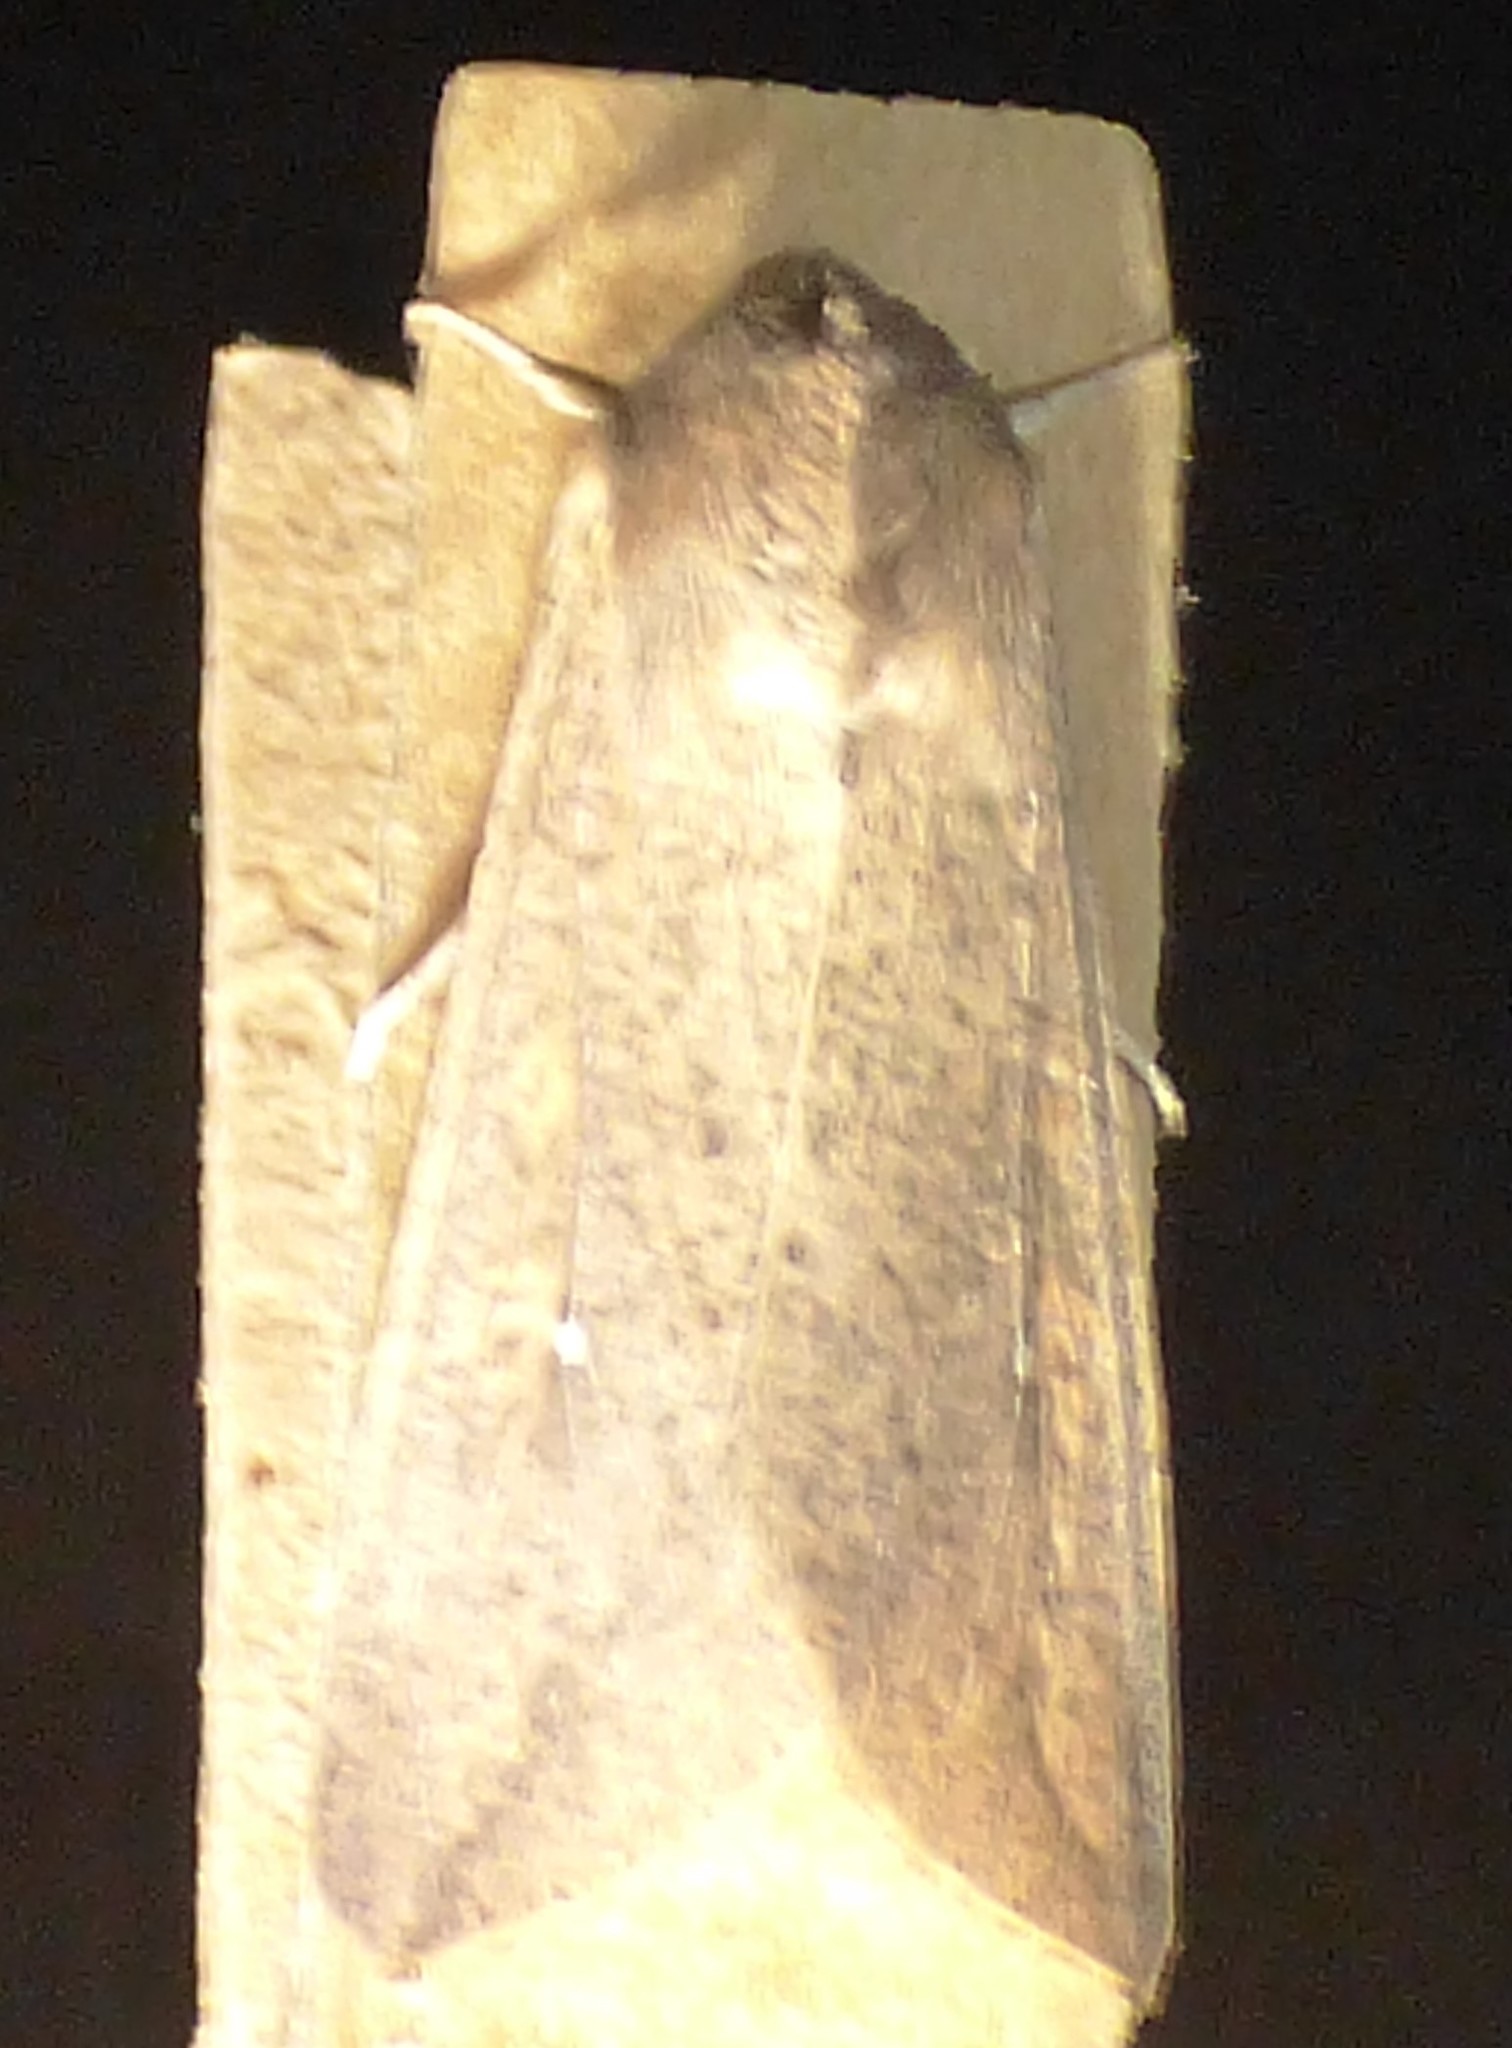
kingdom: Animalia
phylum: Arthropoda
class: Insecta
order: Lepidoptera
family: Noctuidae
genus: Mythimna
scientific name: Mythimna unipuncta
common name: White-speck
